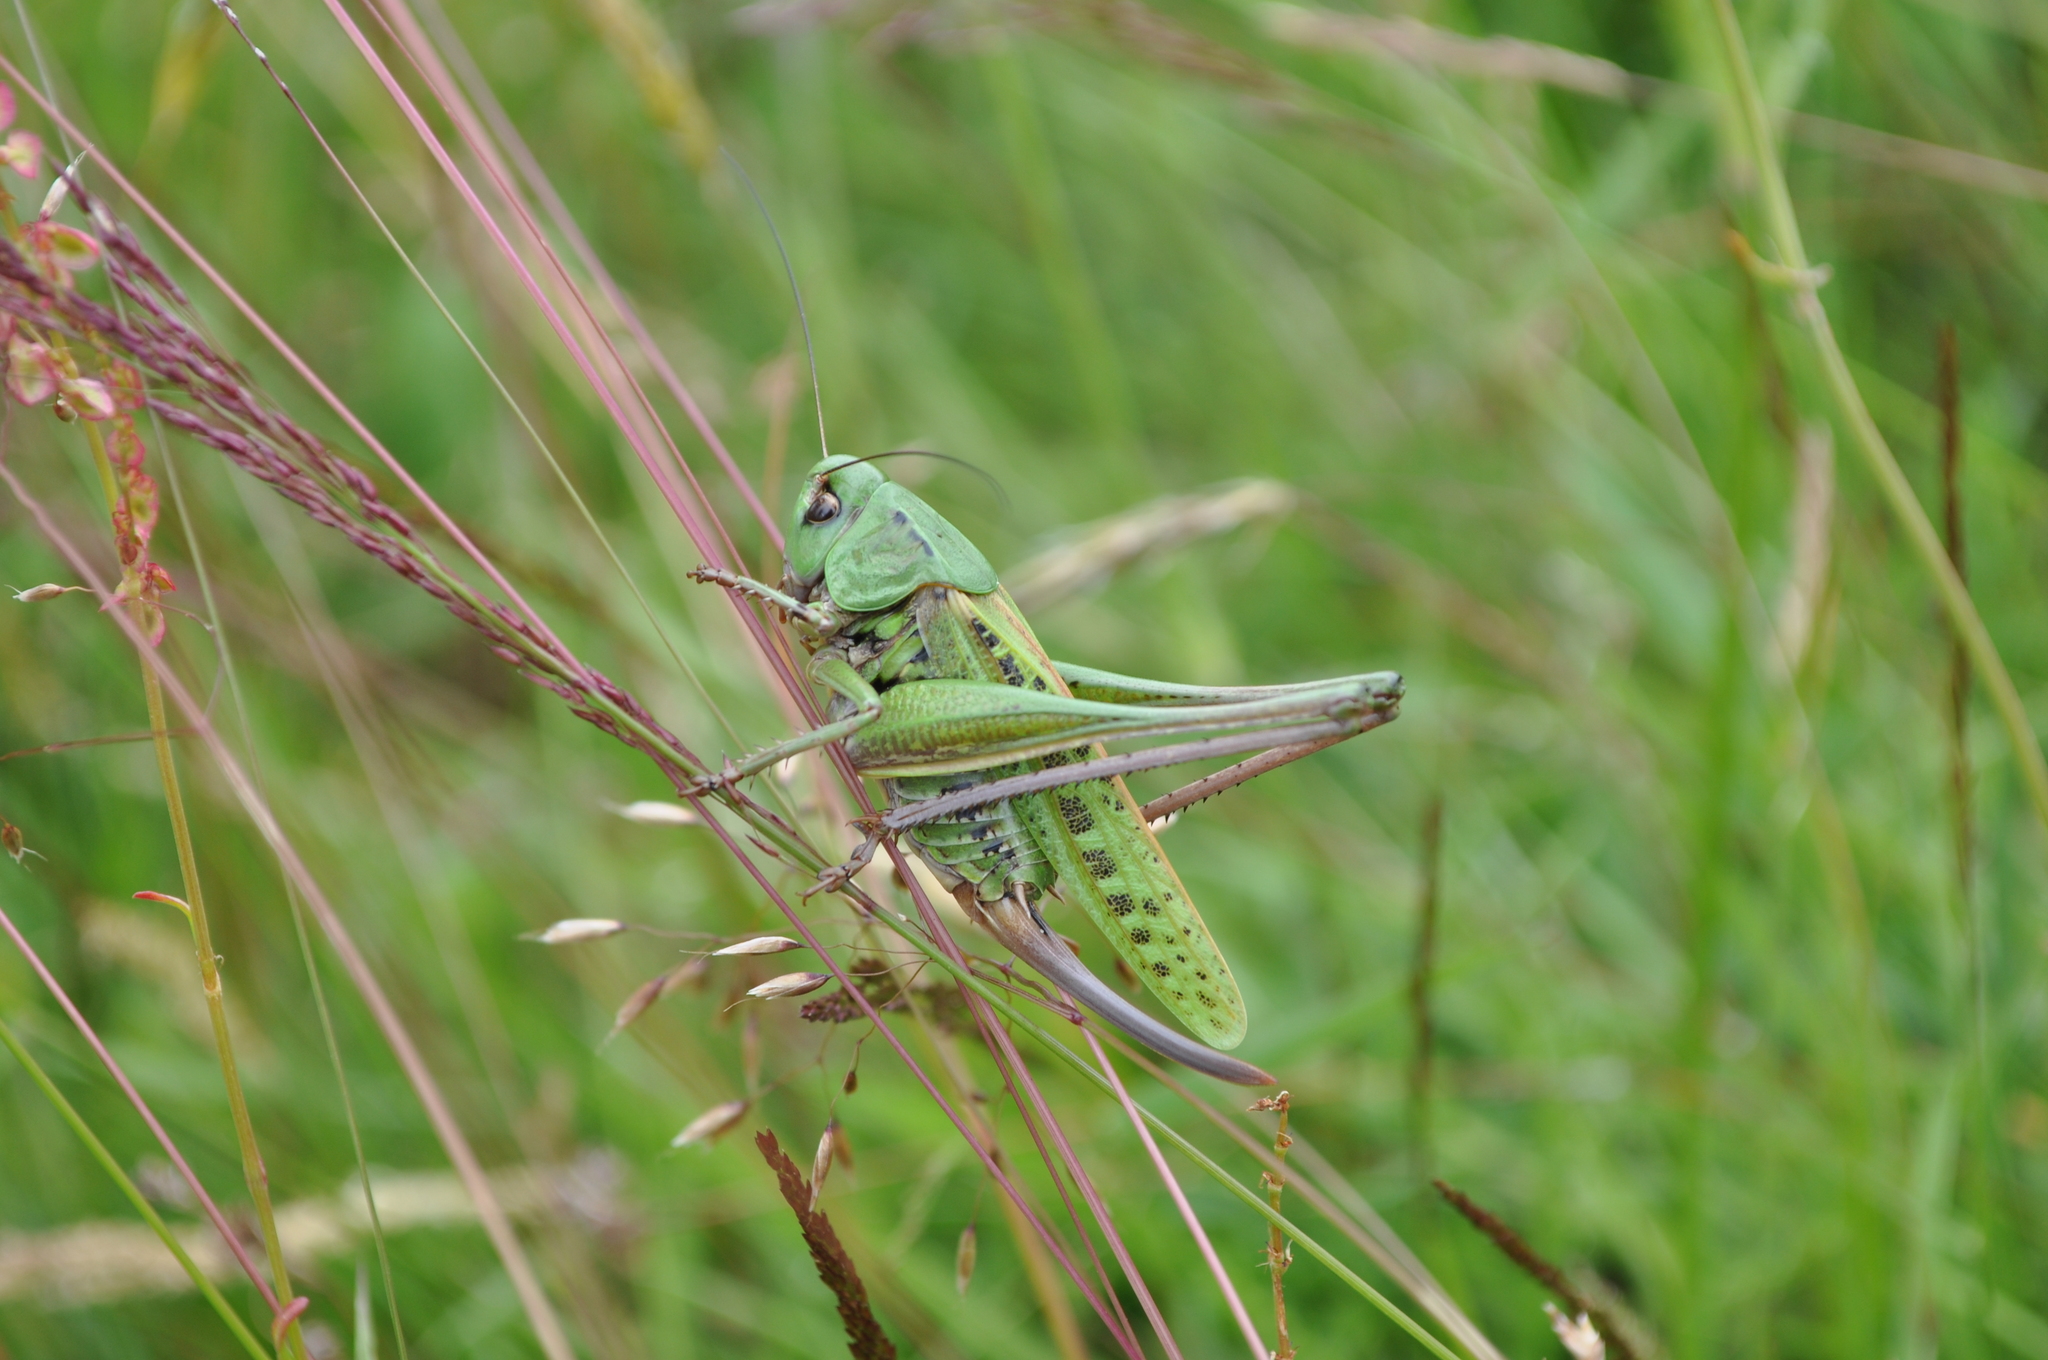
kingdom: Animalia
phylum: Arthropoda
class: Insecta
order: Orthoptera
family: Tettigoniidae
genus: Decticus
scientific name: Decticus verrucivorus
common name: Wart-biter
